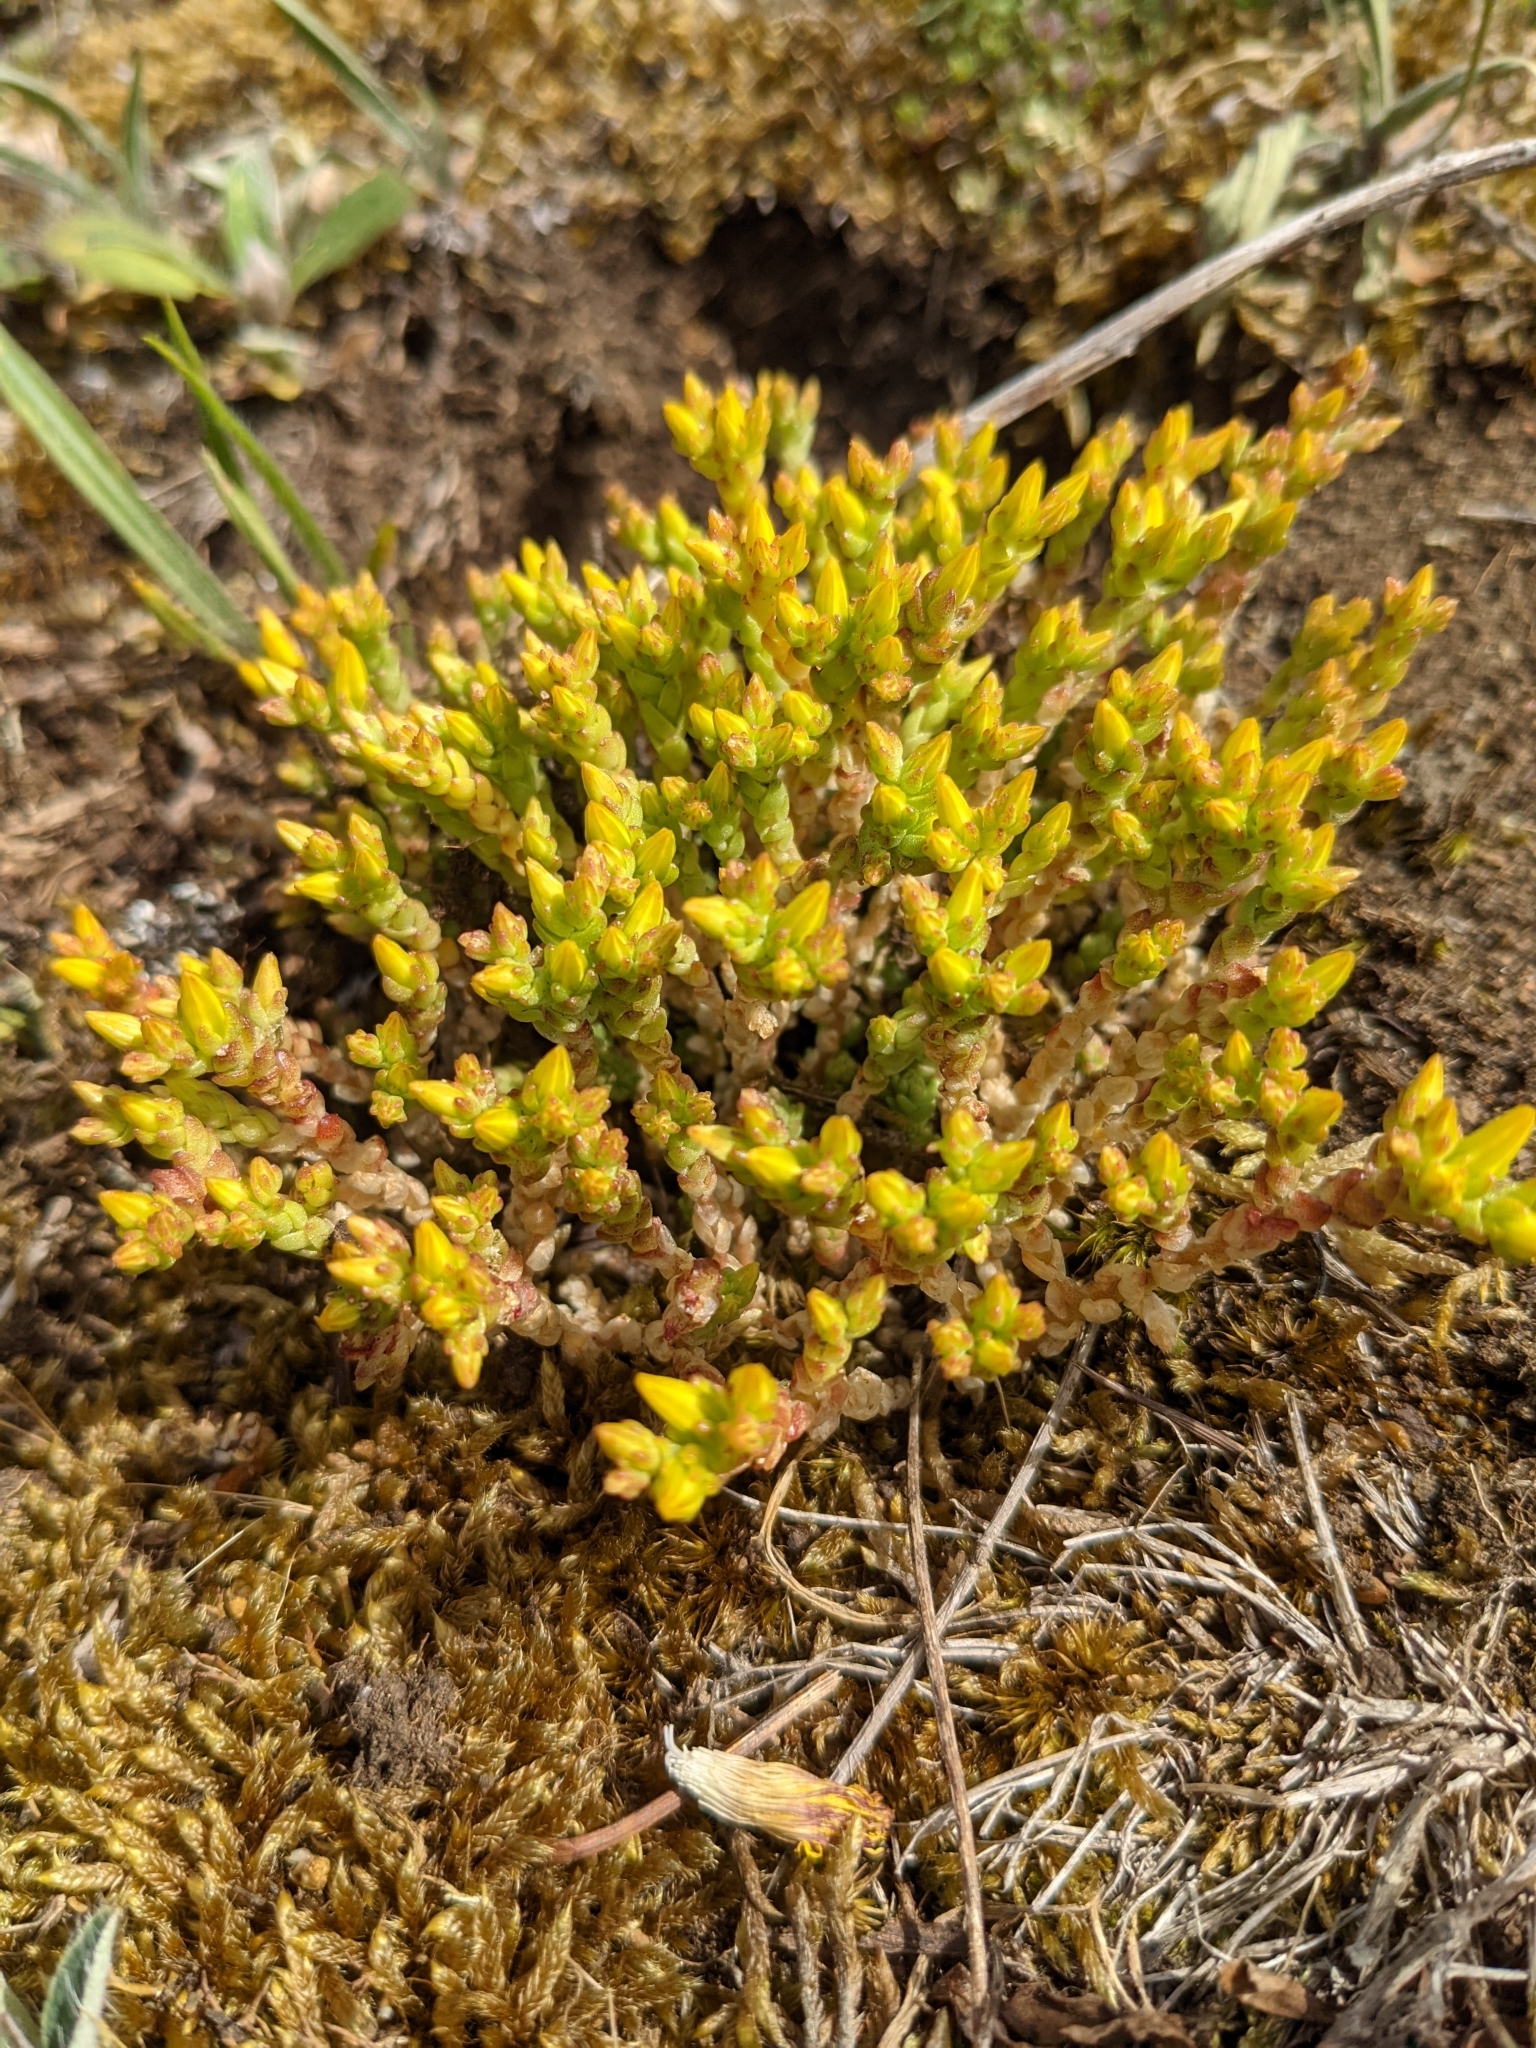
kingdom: Plantae
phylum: Tracheophyta
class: Magnoliopsida
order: Saxifragales
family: Crassulaceae
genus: Sedum
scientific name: Sedum acre
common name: Biting stonecrop
